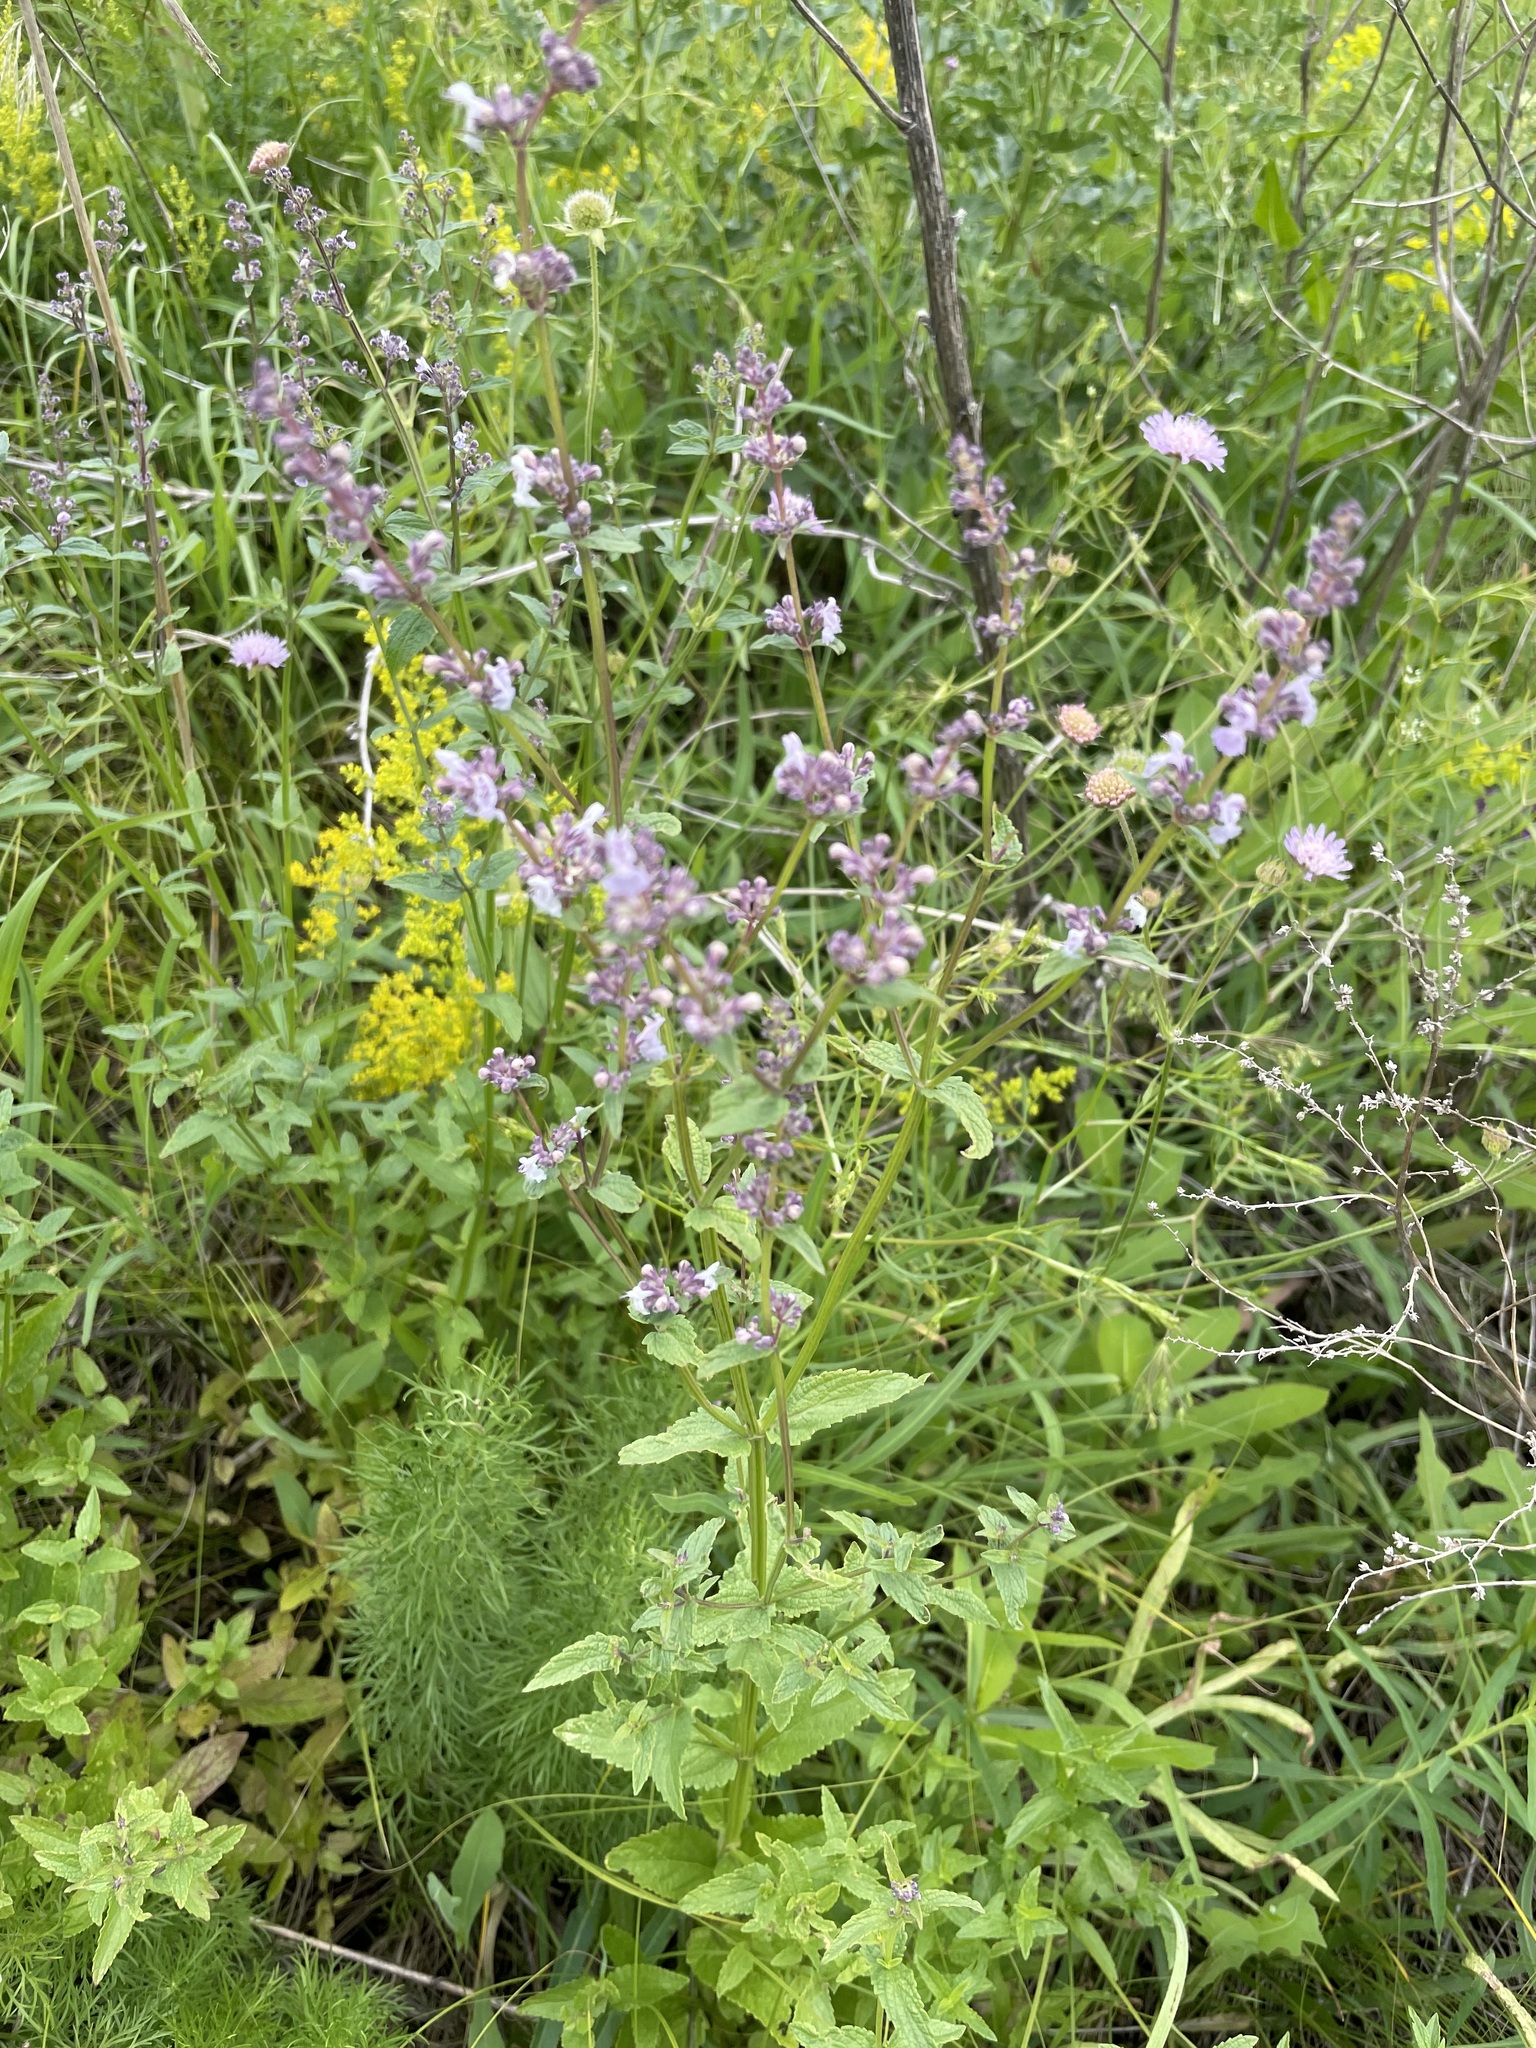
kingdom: Plantae
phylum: Tracheophyta
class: Magnoliopsida
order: Lamiales
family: Lamiaceae
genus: Phlomoides
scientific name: Phlomoides tuberosa
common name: Tuberous jerusalem sage
